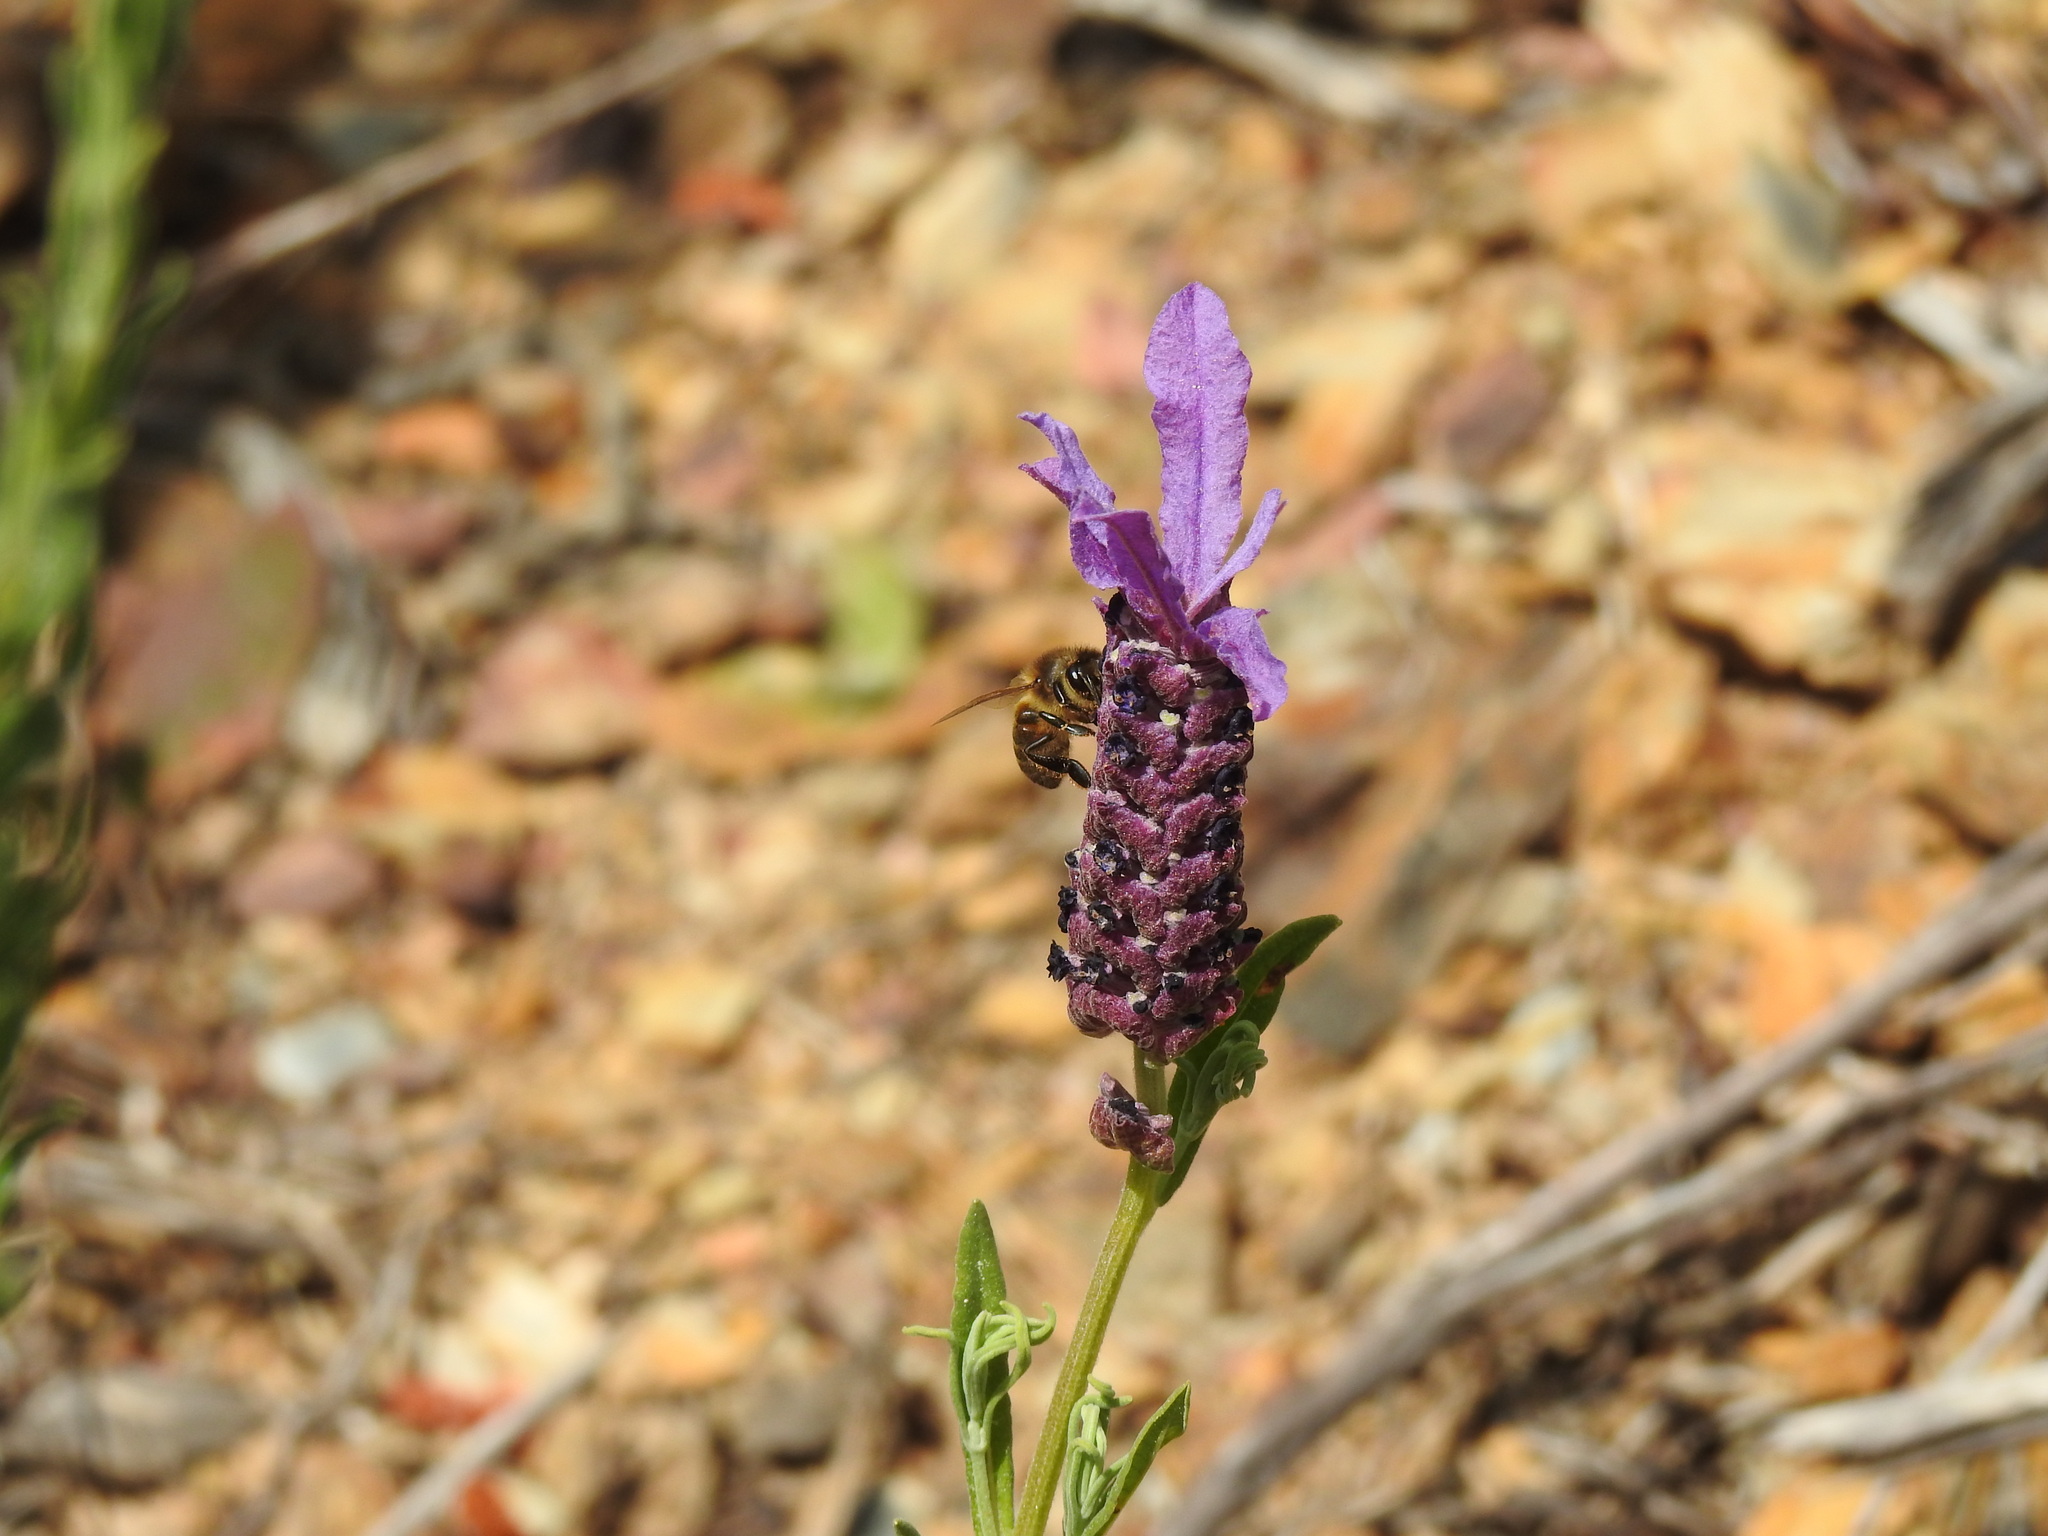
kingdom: Animalia
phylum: Arthropoda
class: Insecta
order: Hymenoptera
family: Apidae
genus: Apis
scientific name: Apis mellifera
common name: Honey bee
